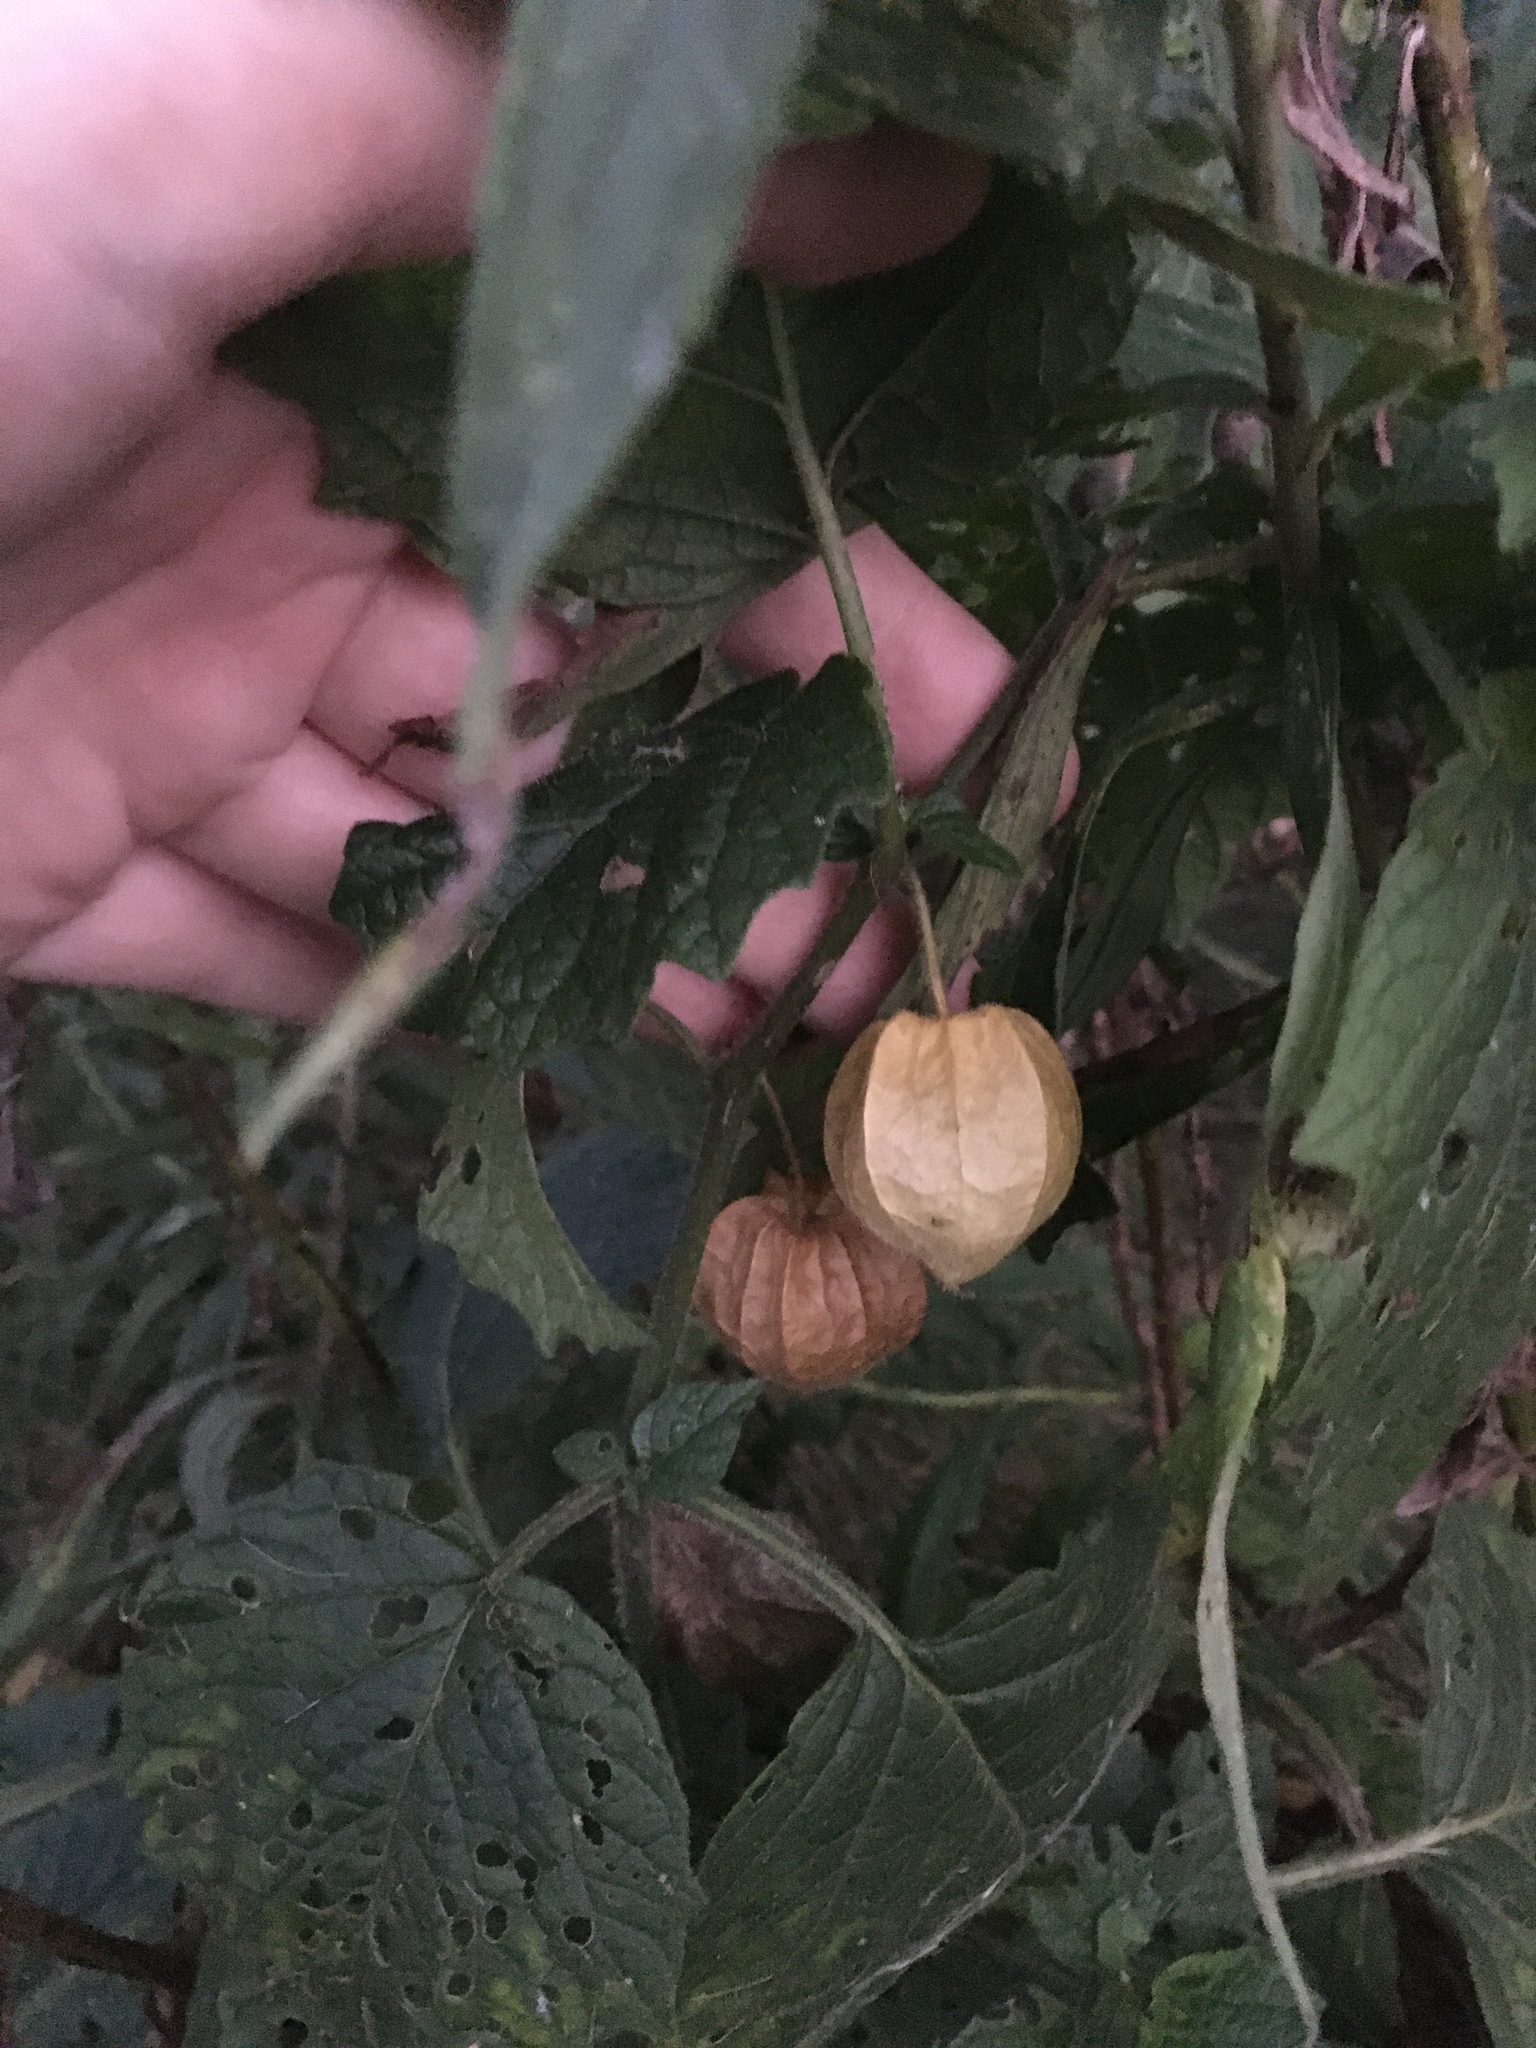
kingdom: Plantae
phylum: Tracheophyta
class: Magnoliopsida
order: Solanales
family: Solanaceae
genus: Physalis
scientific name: Physalis heterophylla
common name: Clammy ground-cherry
